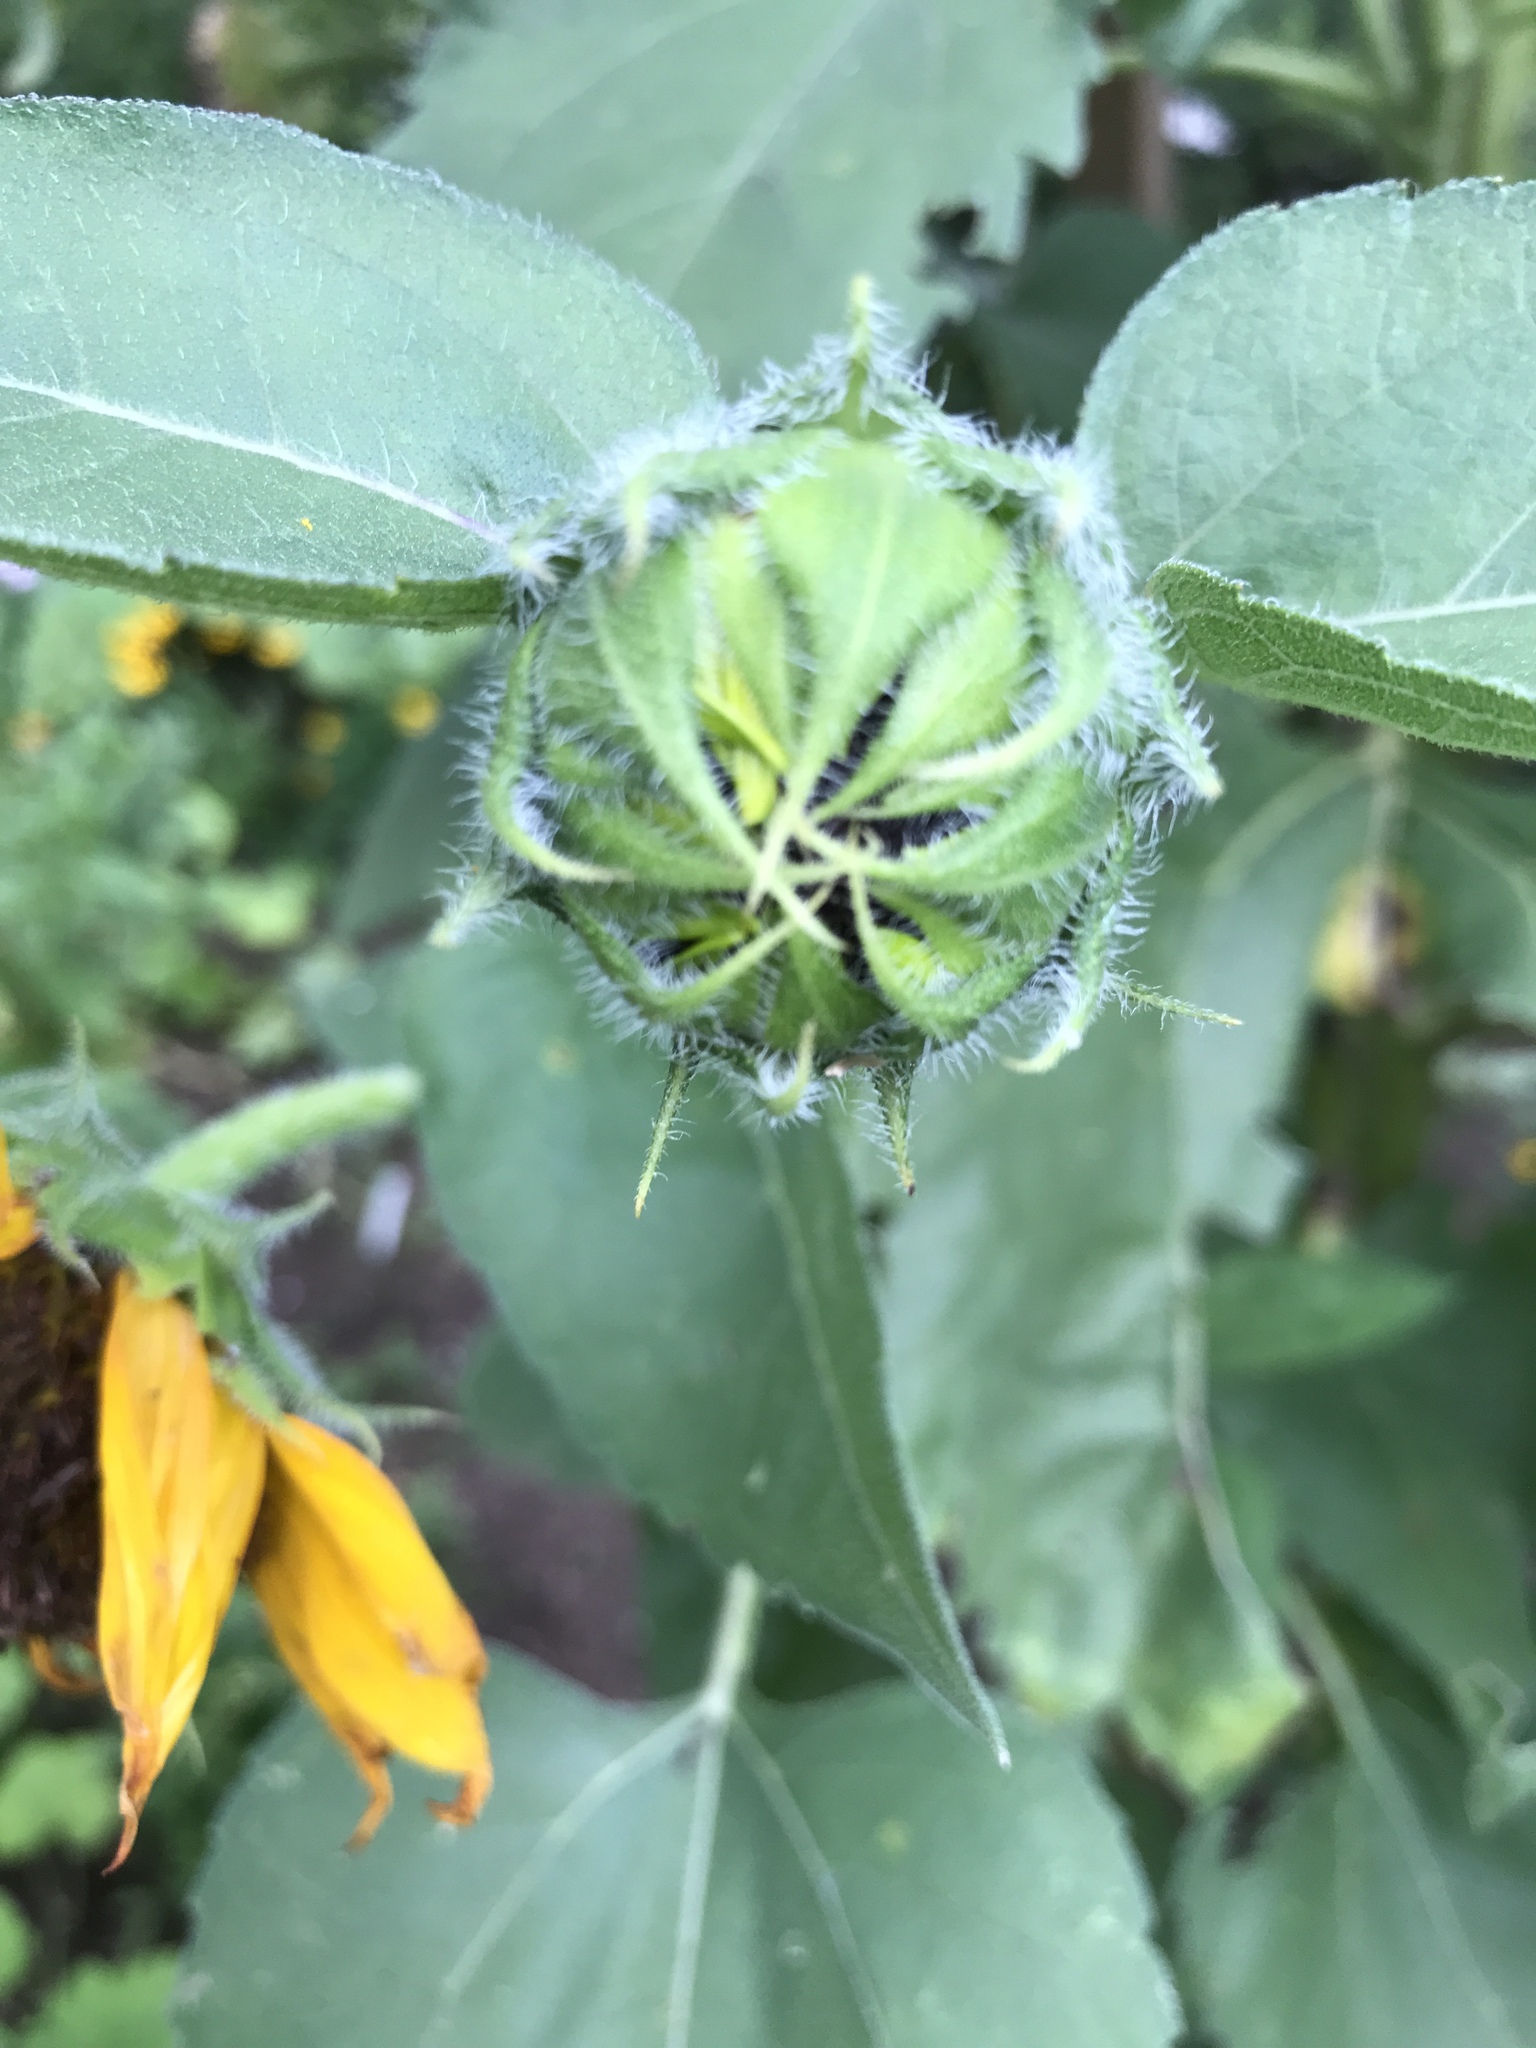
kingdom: Plantae
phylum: Tracheophyta
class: Magnoliopsida
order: Asterales
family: Asteraceae
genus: Helianthus
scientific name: Helianthus annuus
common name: Sunflower
